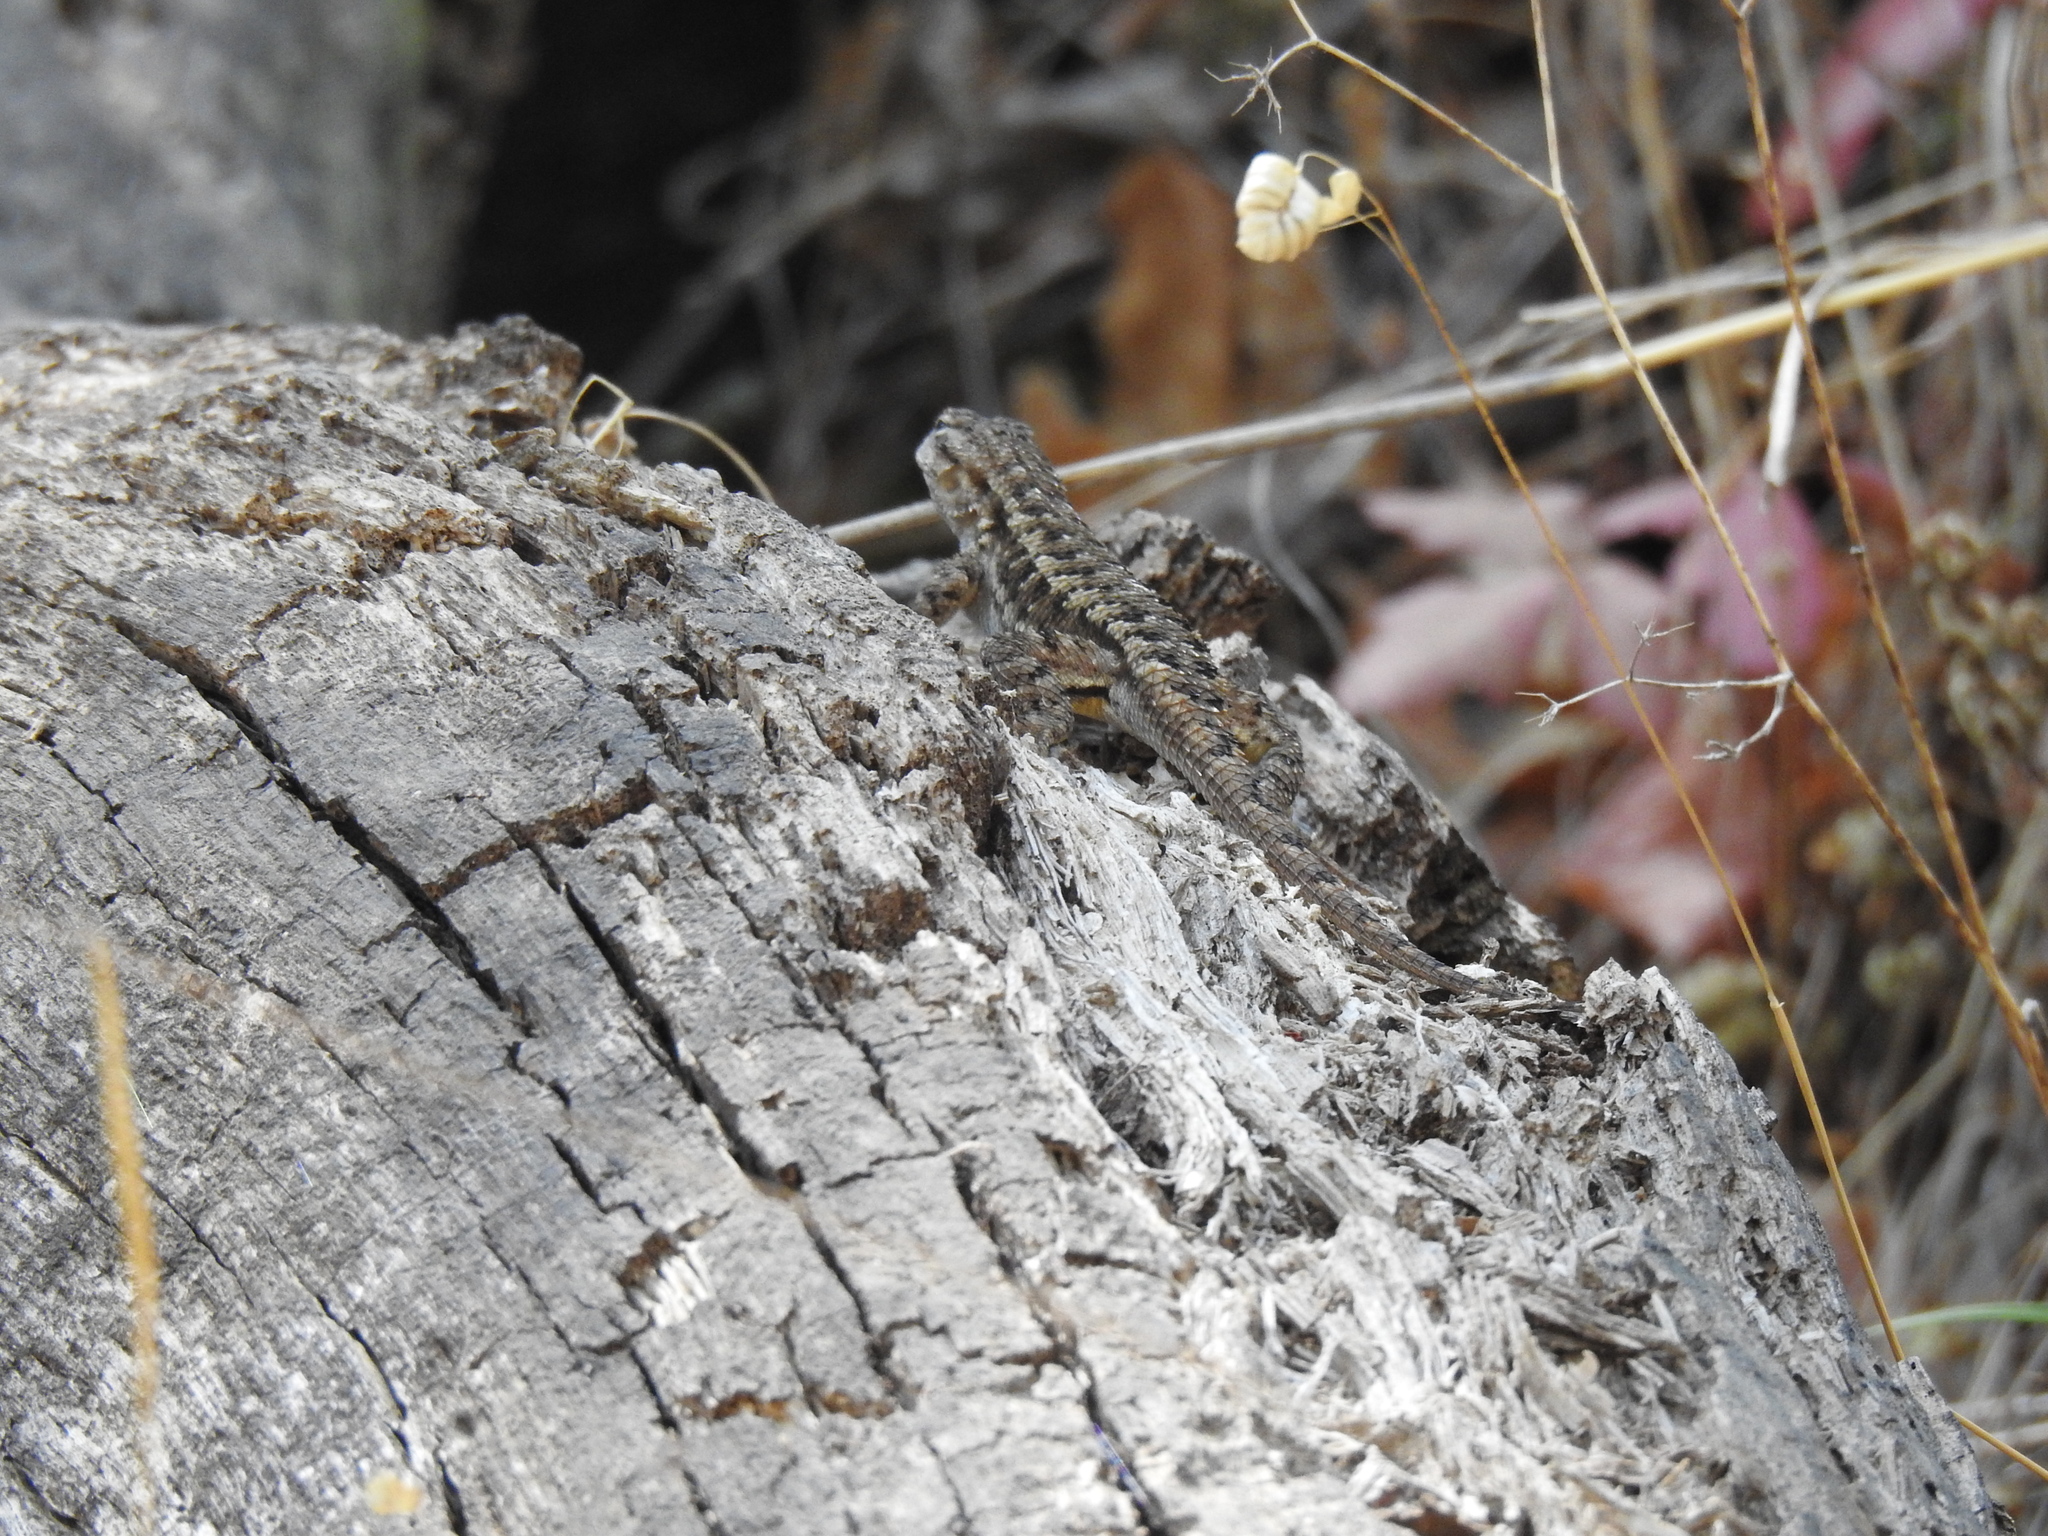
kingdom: Animalia
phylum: Chordata
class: Squamata
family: Phrynosomatidae
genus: Sceloporus
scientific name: Sceloporus occidentalis
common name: Western fence lizard
